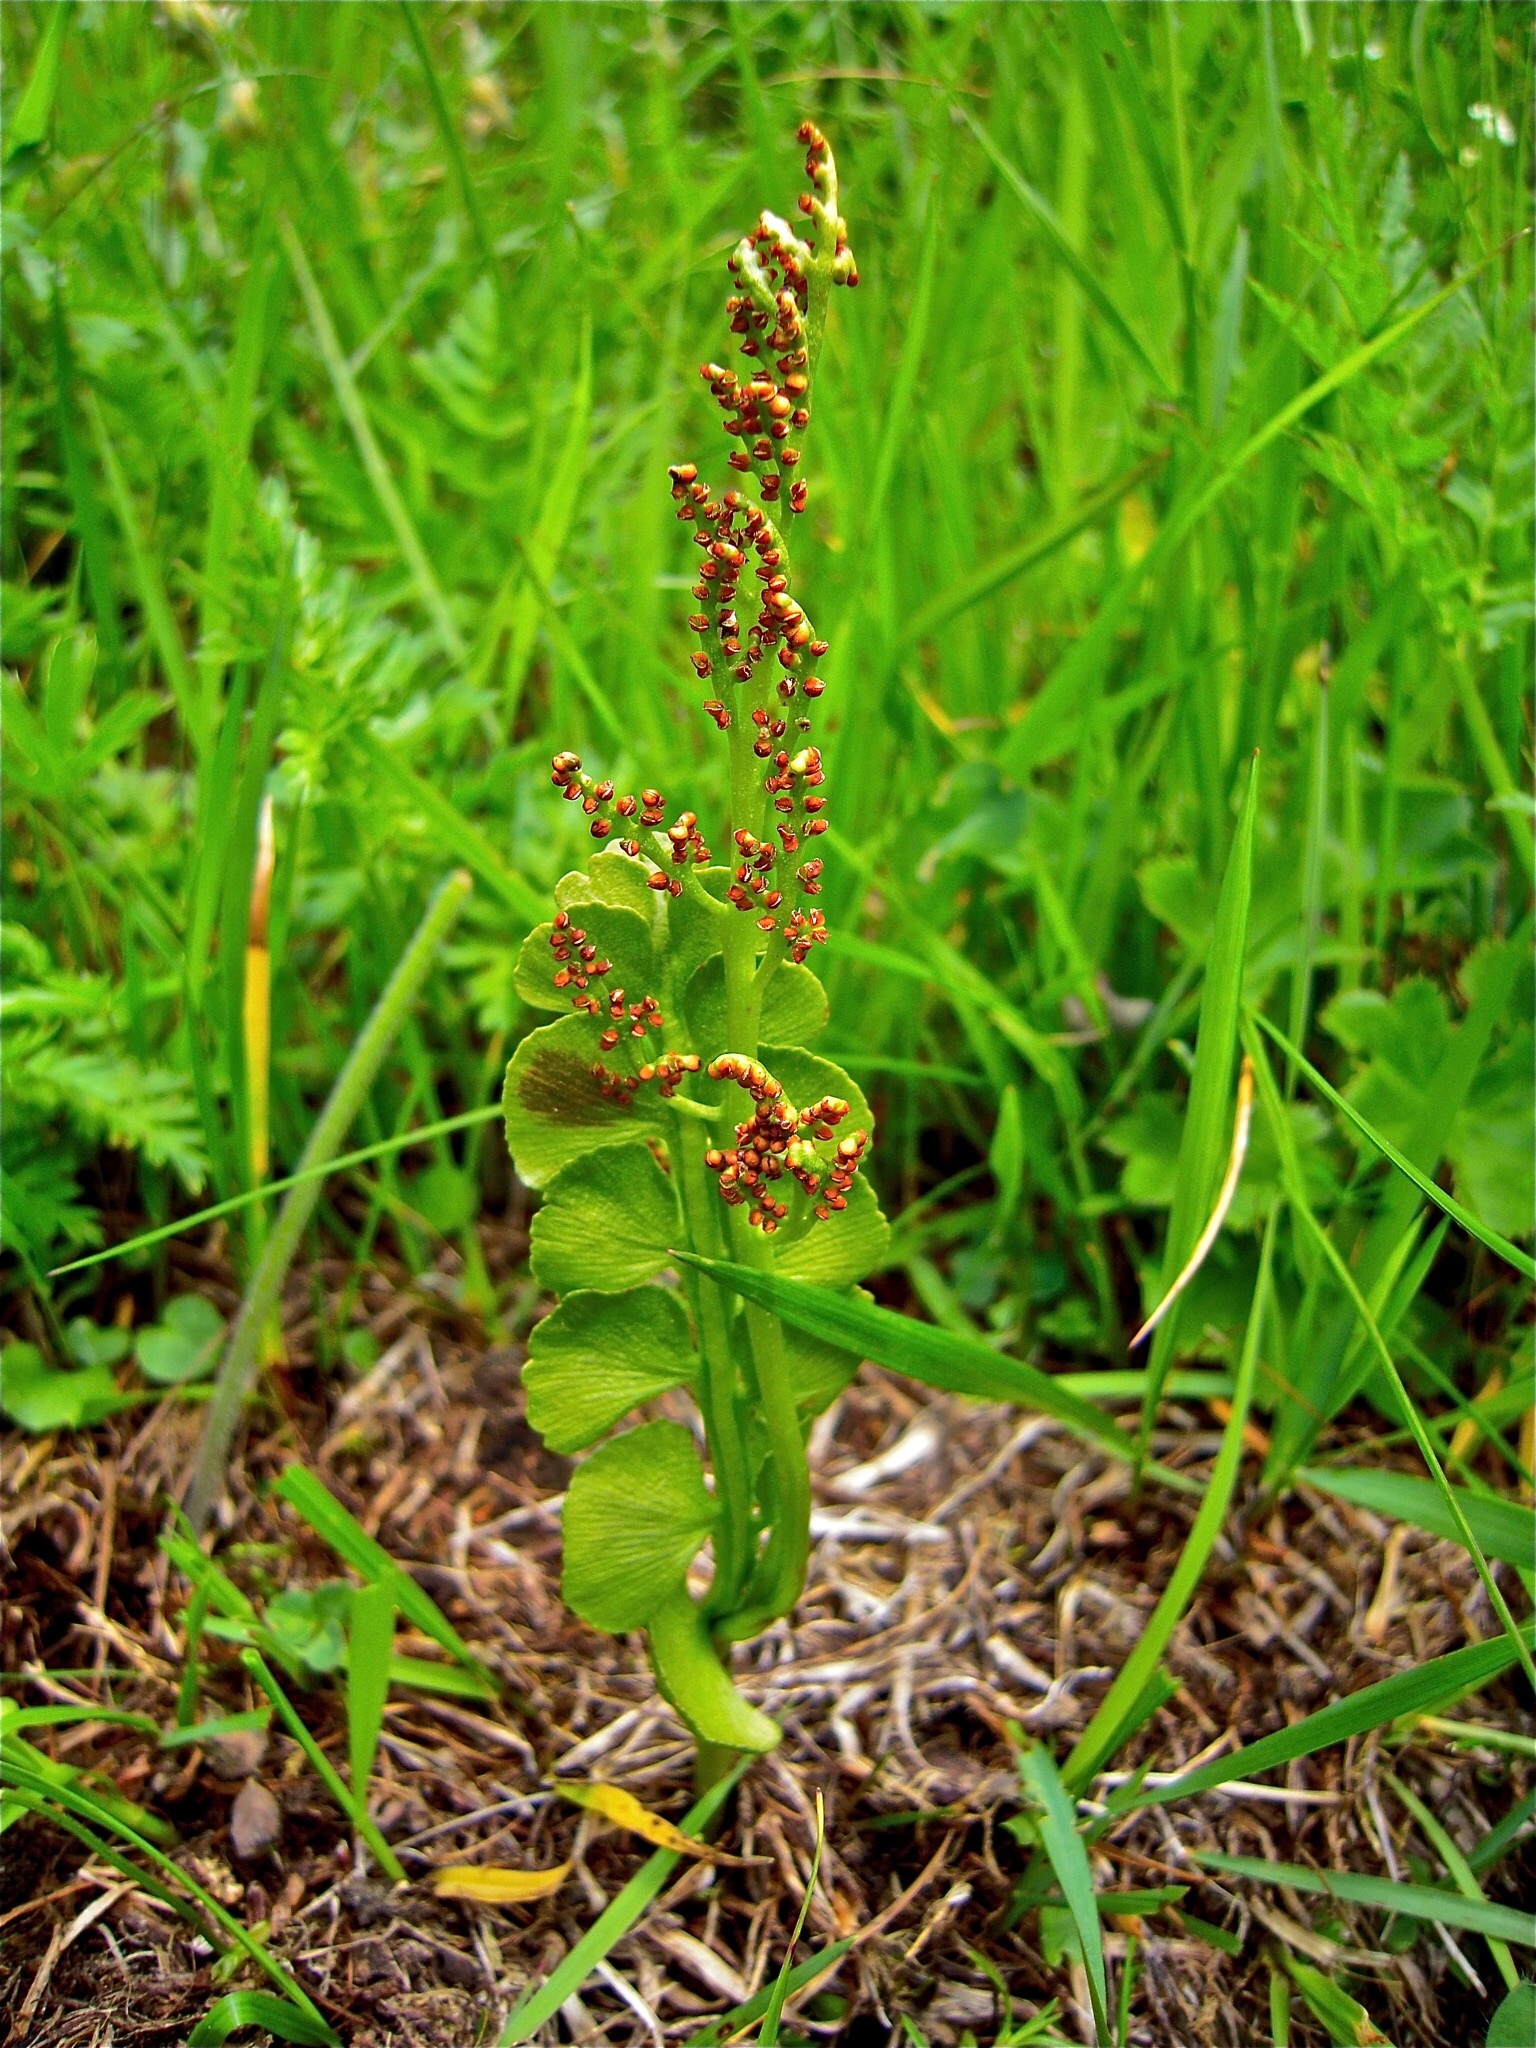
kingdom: Plantae
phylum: Tracheophyta
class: Polypodiopsida
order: Ophioglossales
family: Ophioglossaceae
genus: Botrychium
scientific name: Botrychium lunaria
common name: Moonwort
